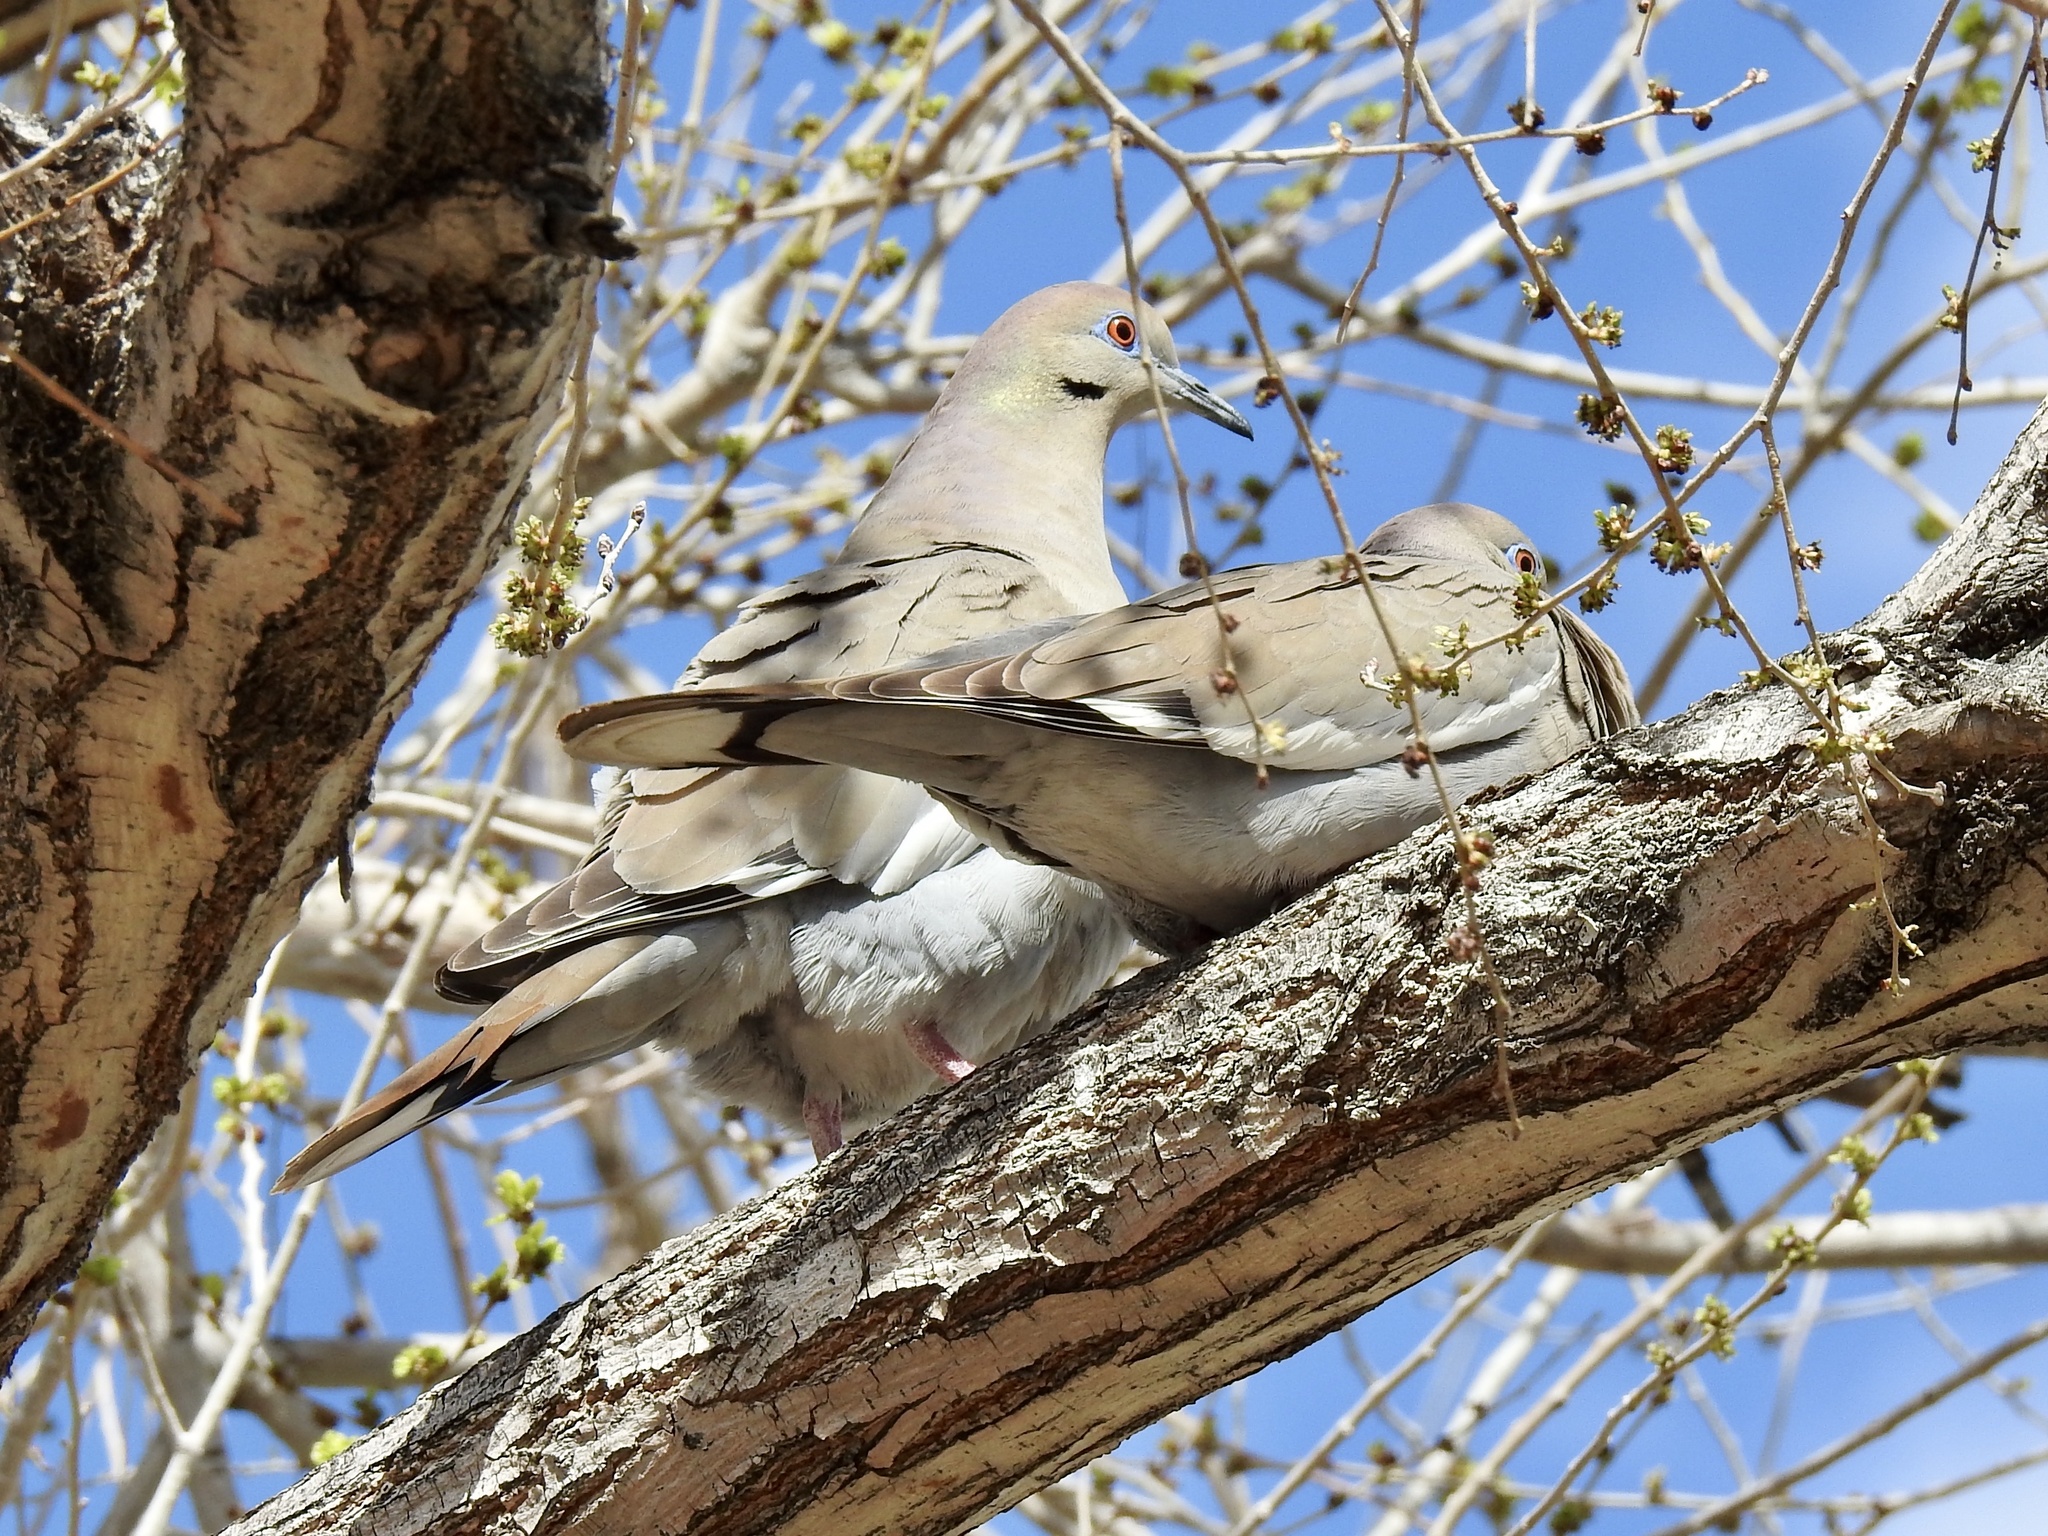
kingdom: Animalia
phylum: Chordata
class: Aves
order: Columbiformes
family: Columbidae
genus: Zenaida
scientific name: Zenaida asiatica
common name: White-winged dove
